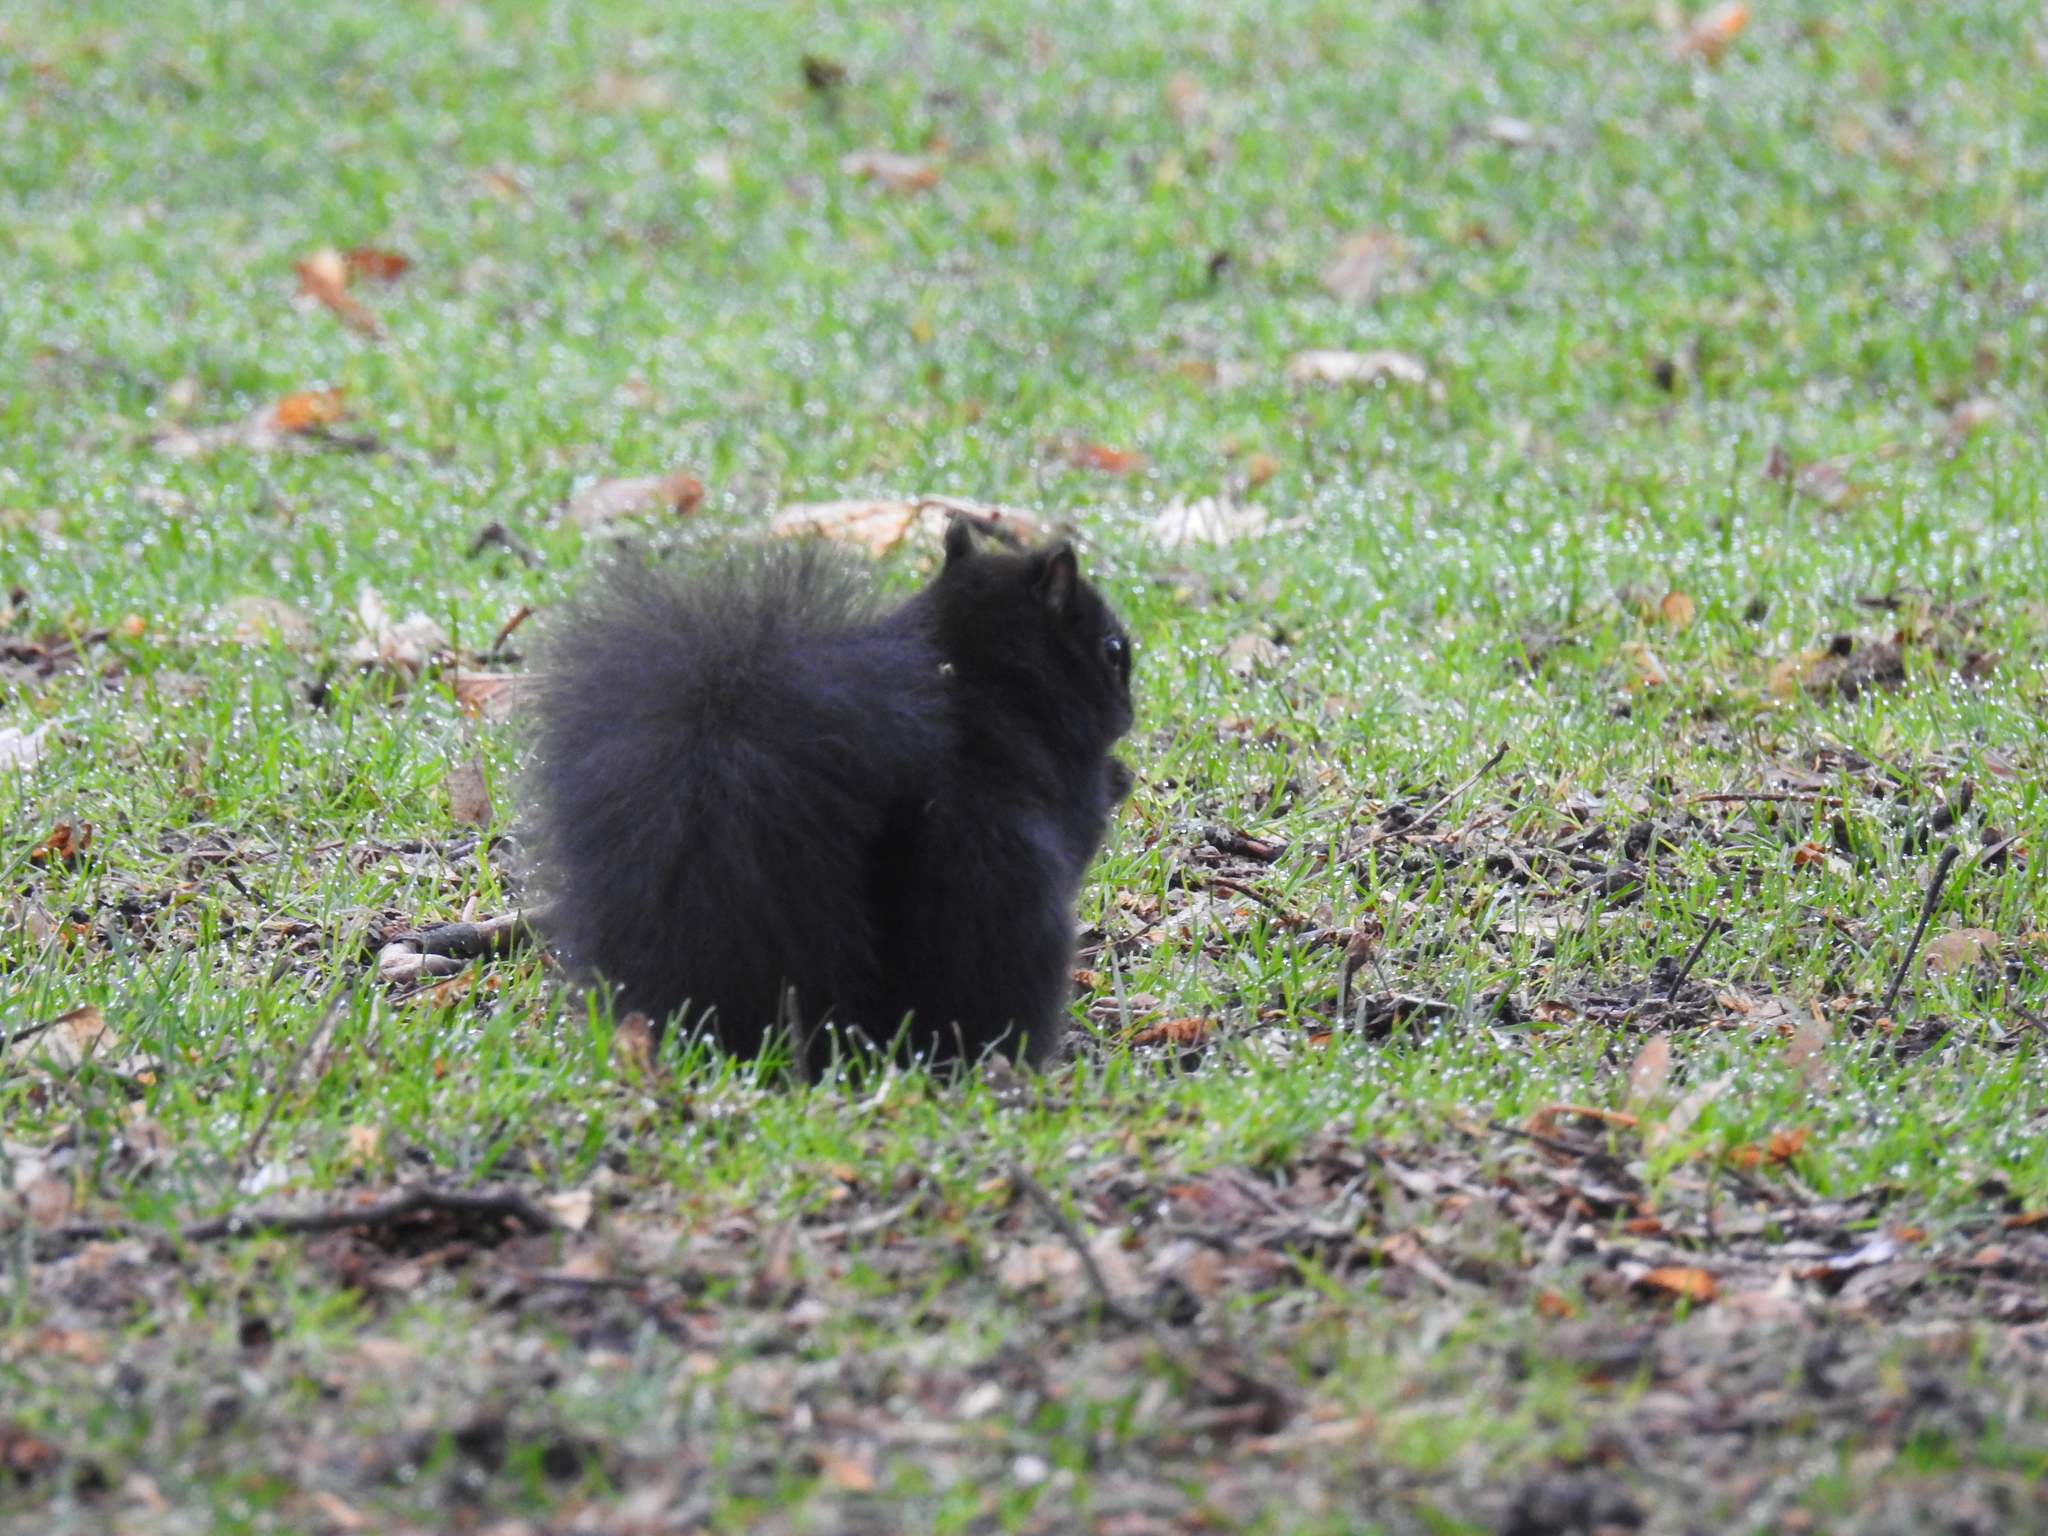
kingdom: Animalia
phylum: Chordata
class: Mammalia
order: Rodentia
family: Sciuridae
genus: Sciurus
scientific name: Sciurus carolinensis
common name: Eastern gray squirrel
